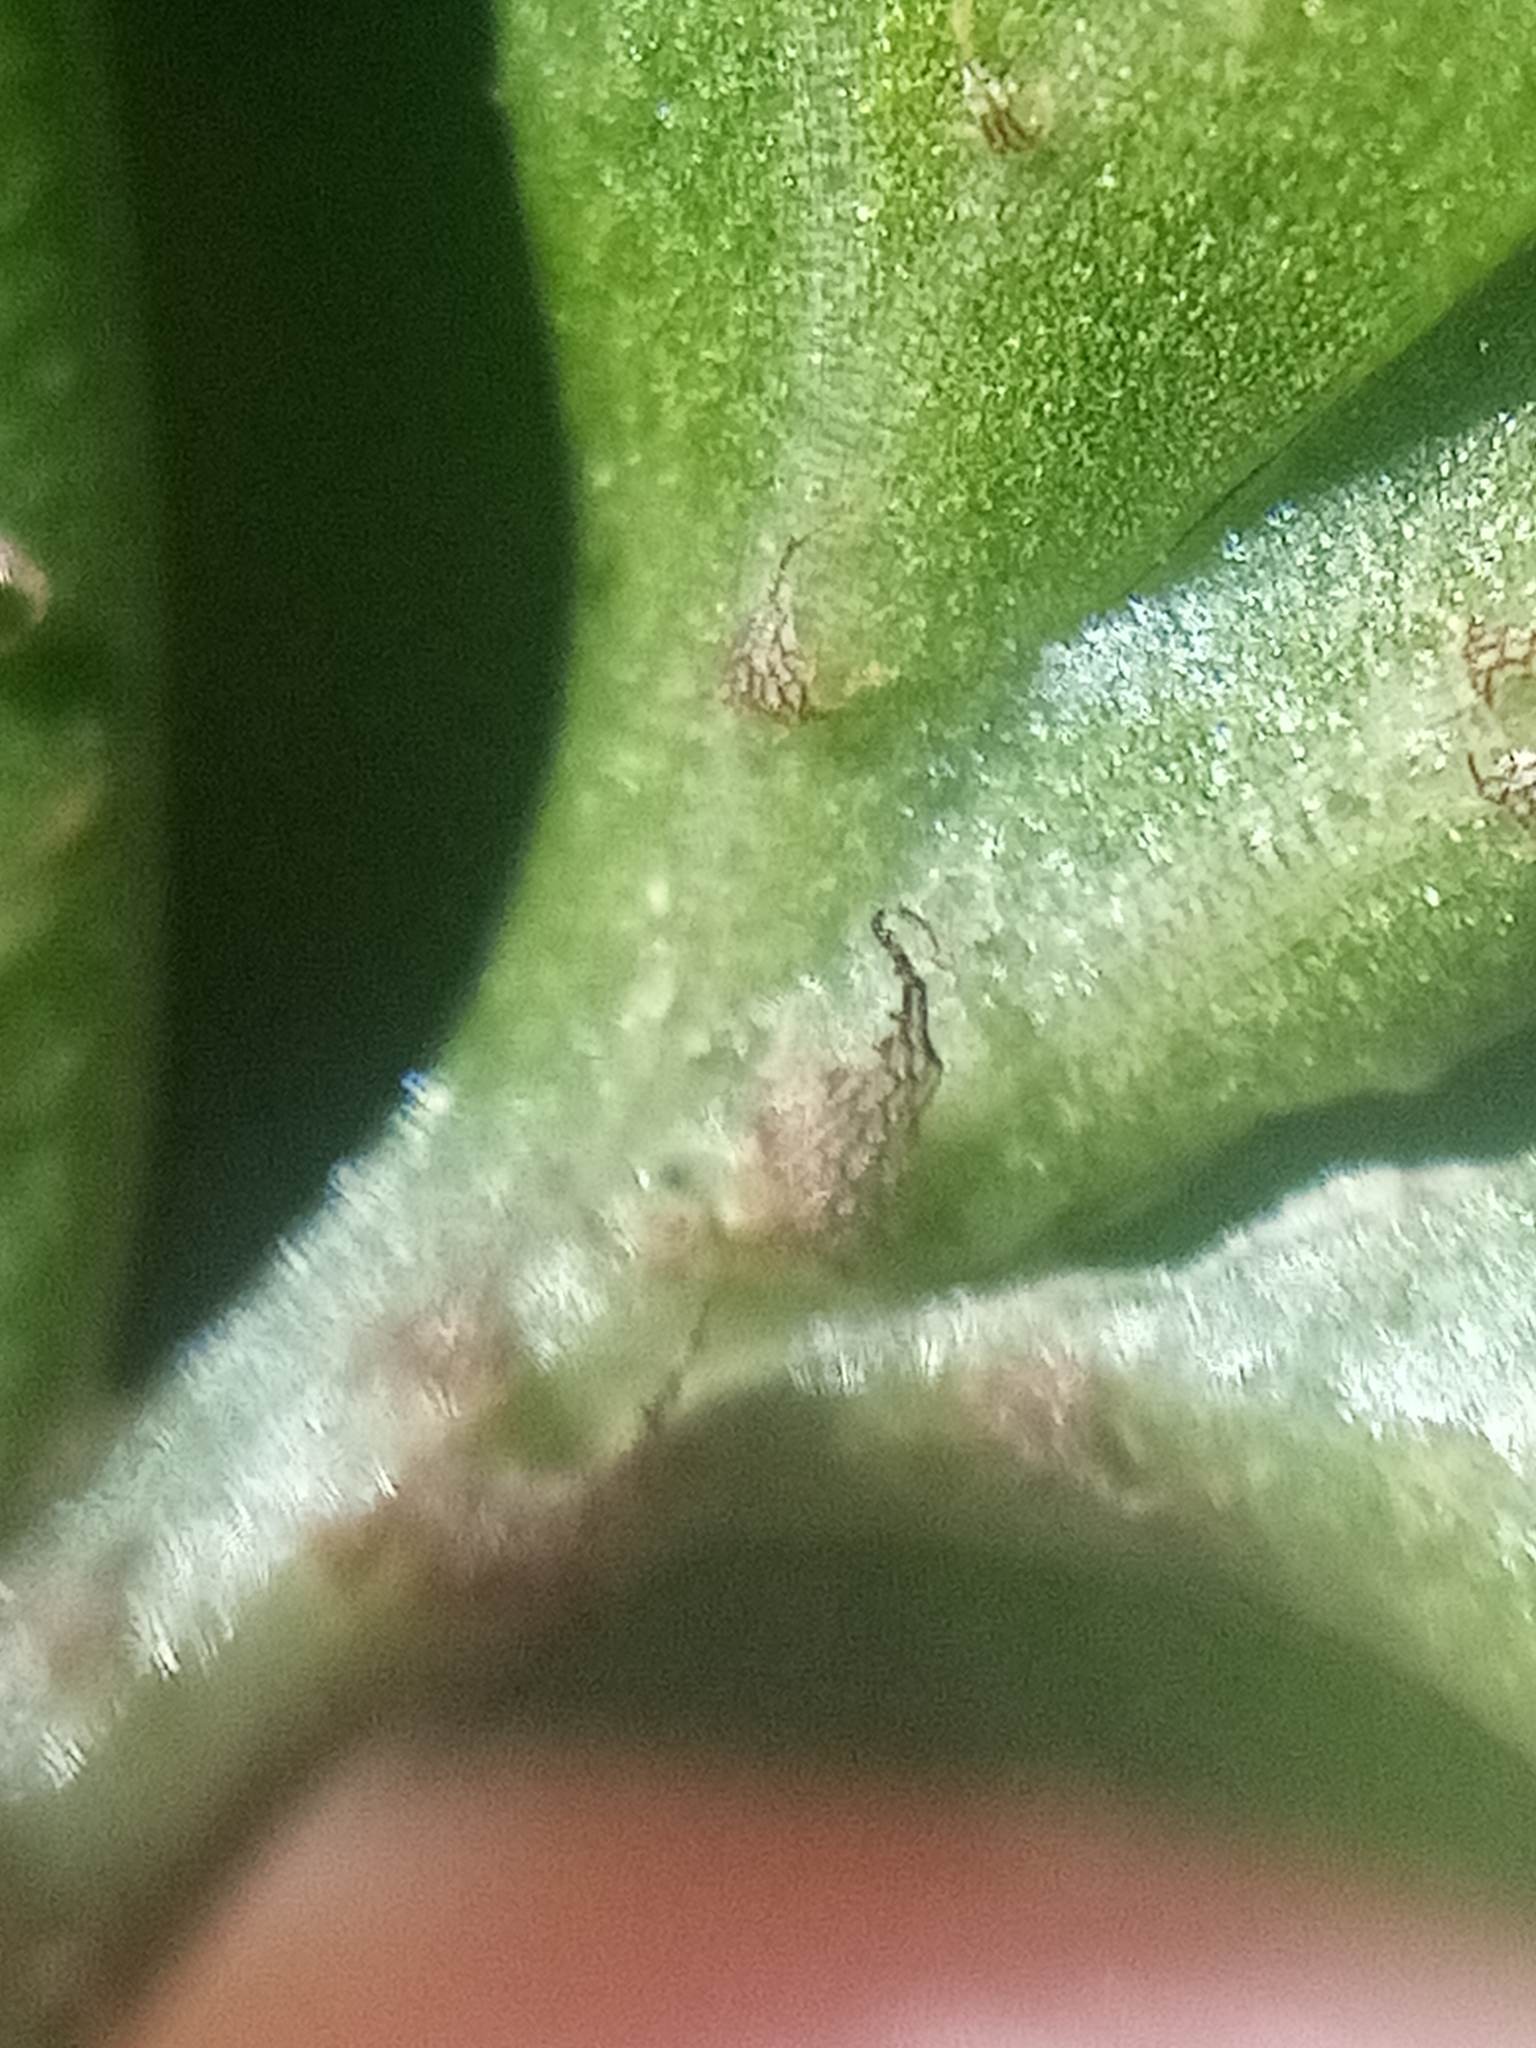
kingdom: Plantae
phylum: Tracheophyta
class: Polypodiopsida
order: Polypodiales
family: Aspleniaceae
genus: Asplenium
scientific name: Asplenium
